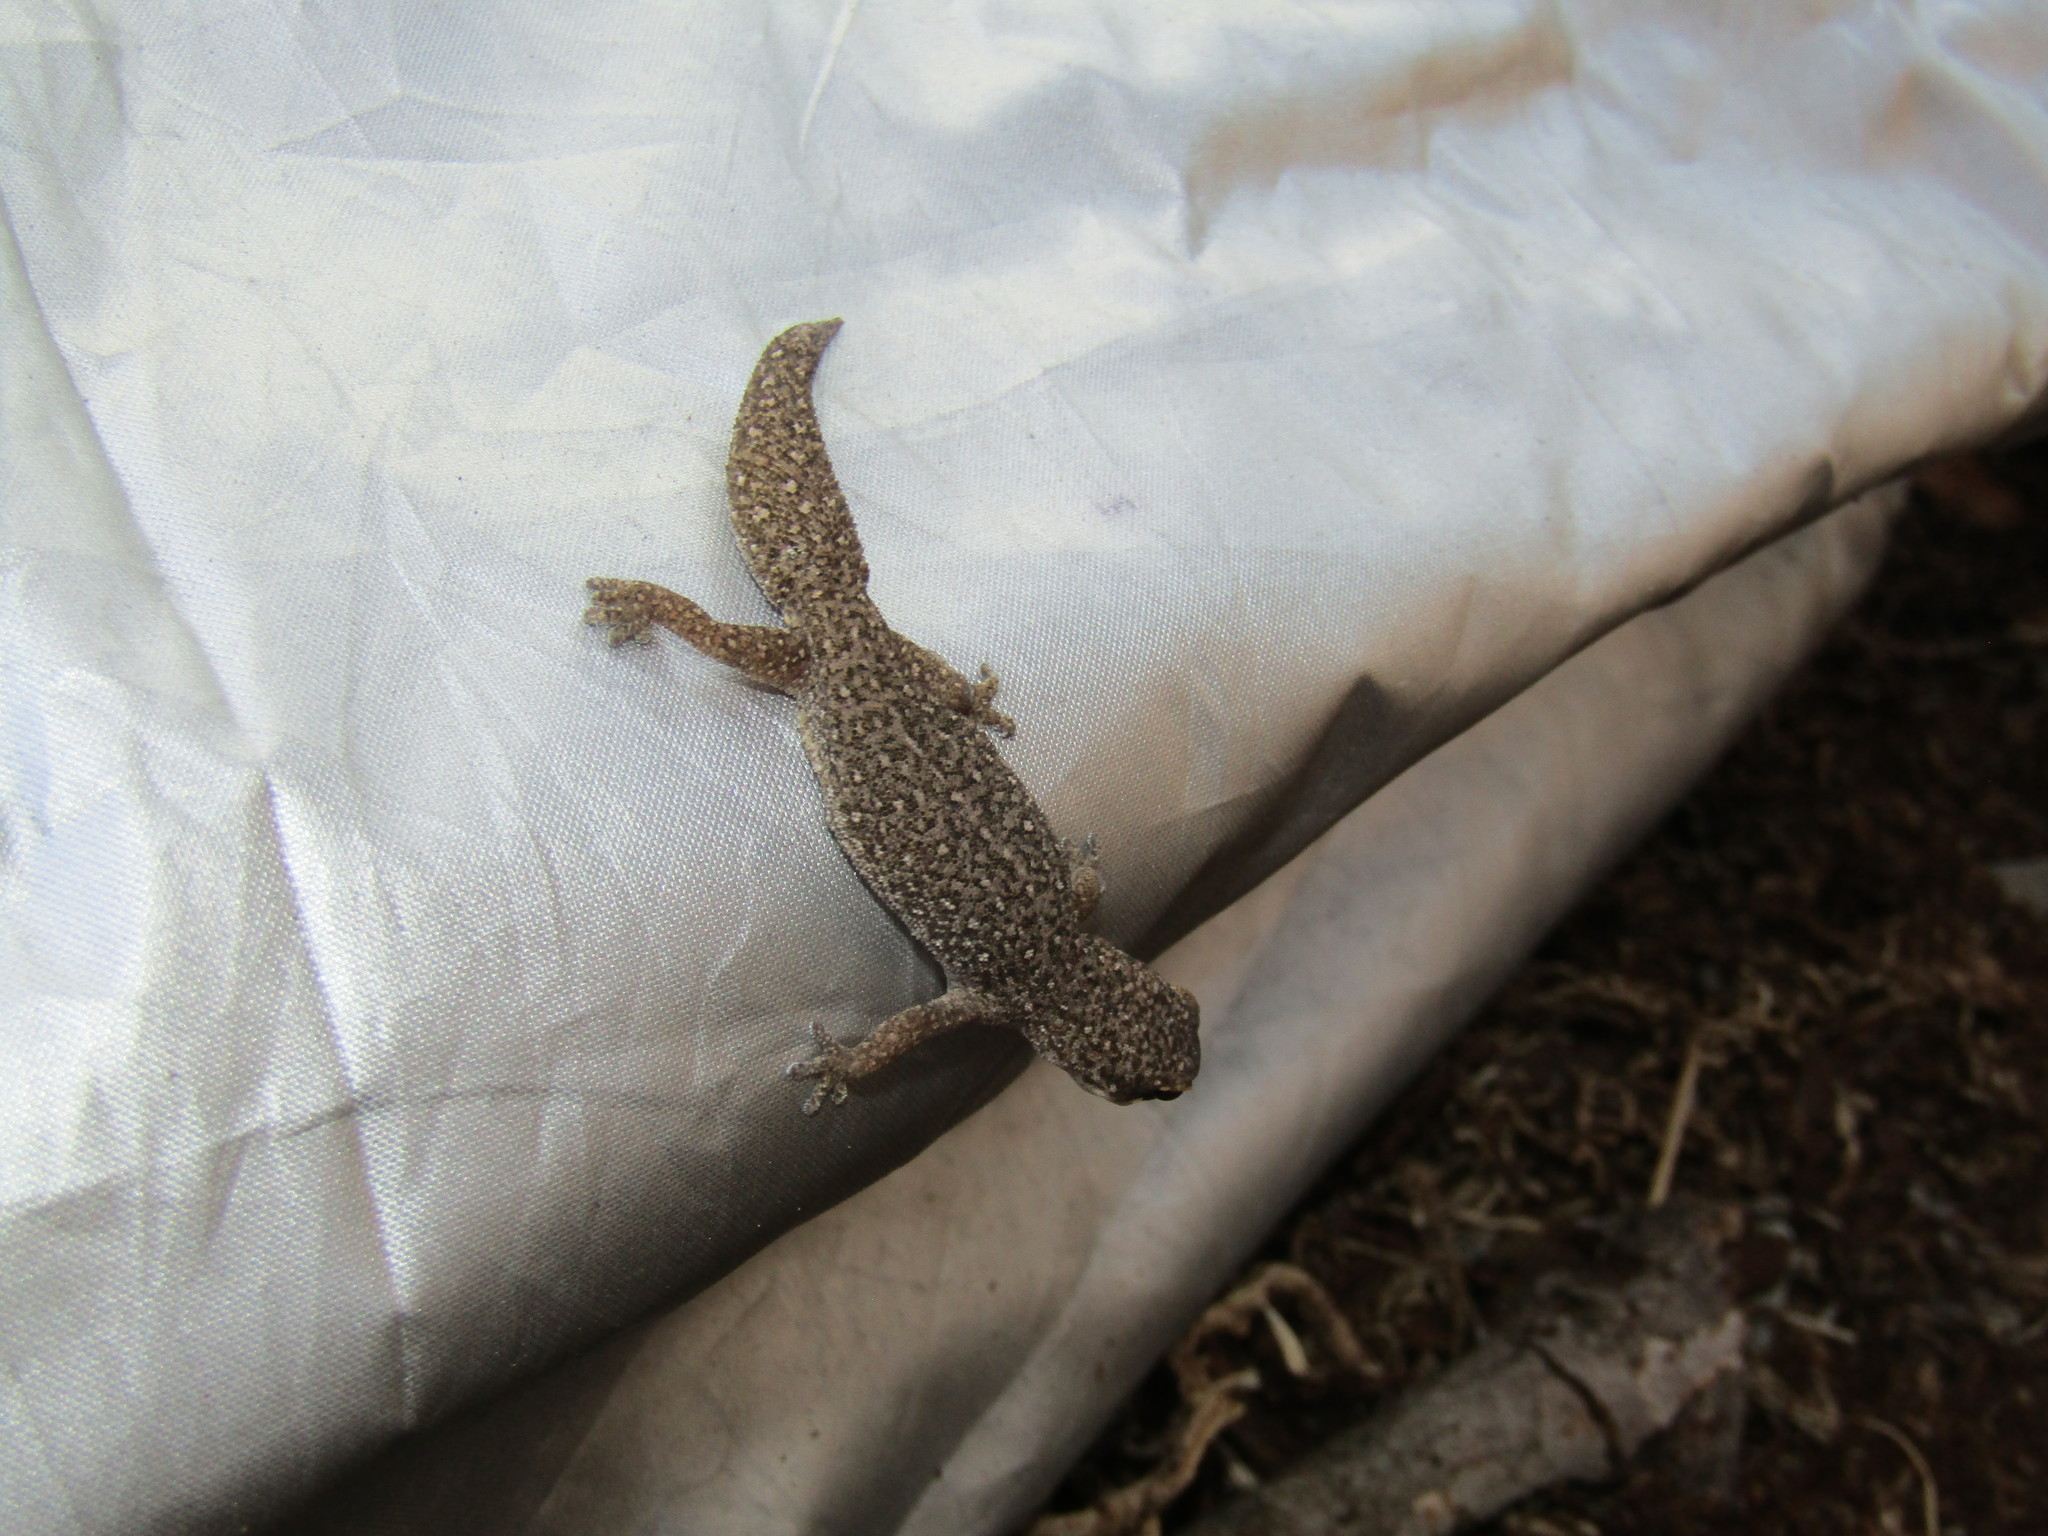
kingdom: Animalia
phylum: Chordata
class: Squamata
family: Gekkonidae
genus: Pachydactylus
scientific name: Pachydactylus geitje
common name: Ocellated thick-toed gecko
